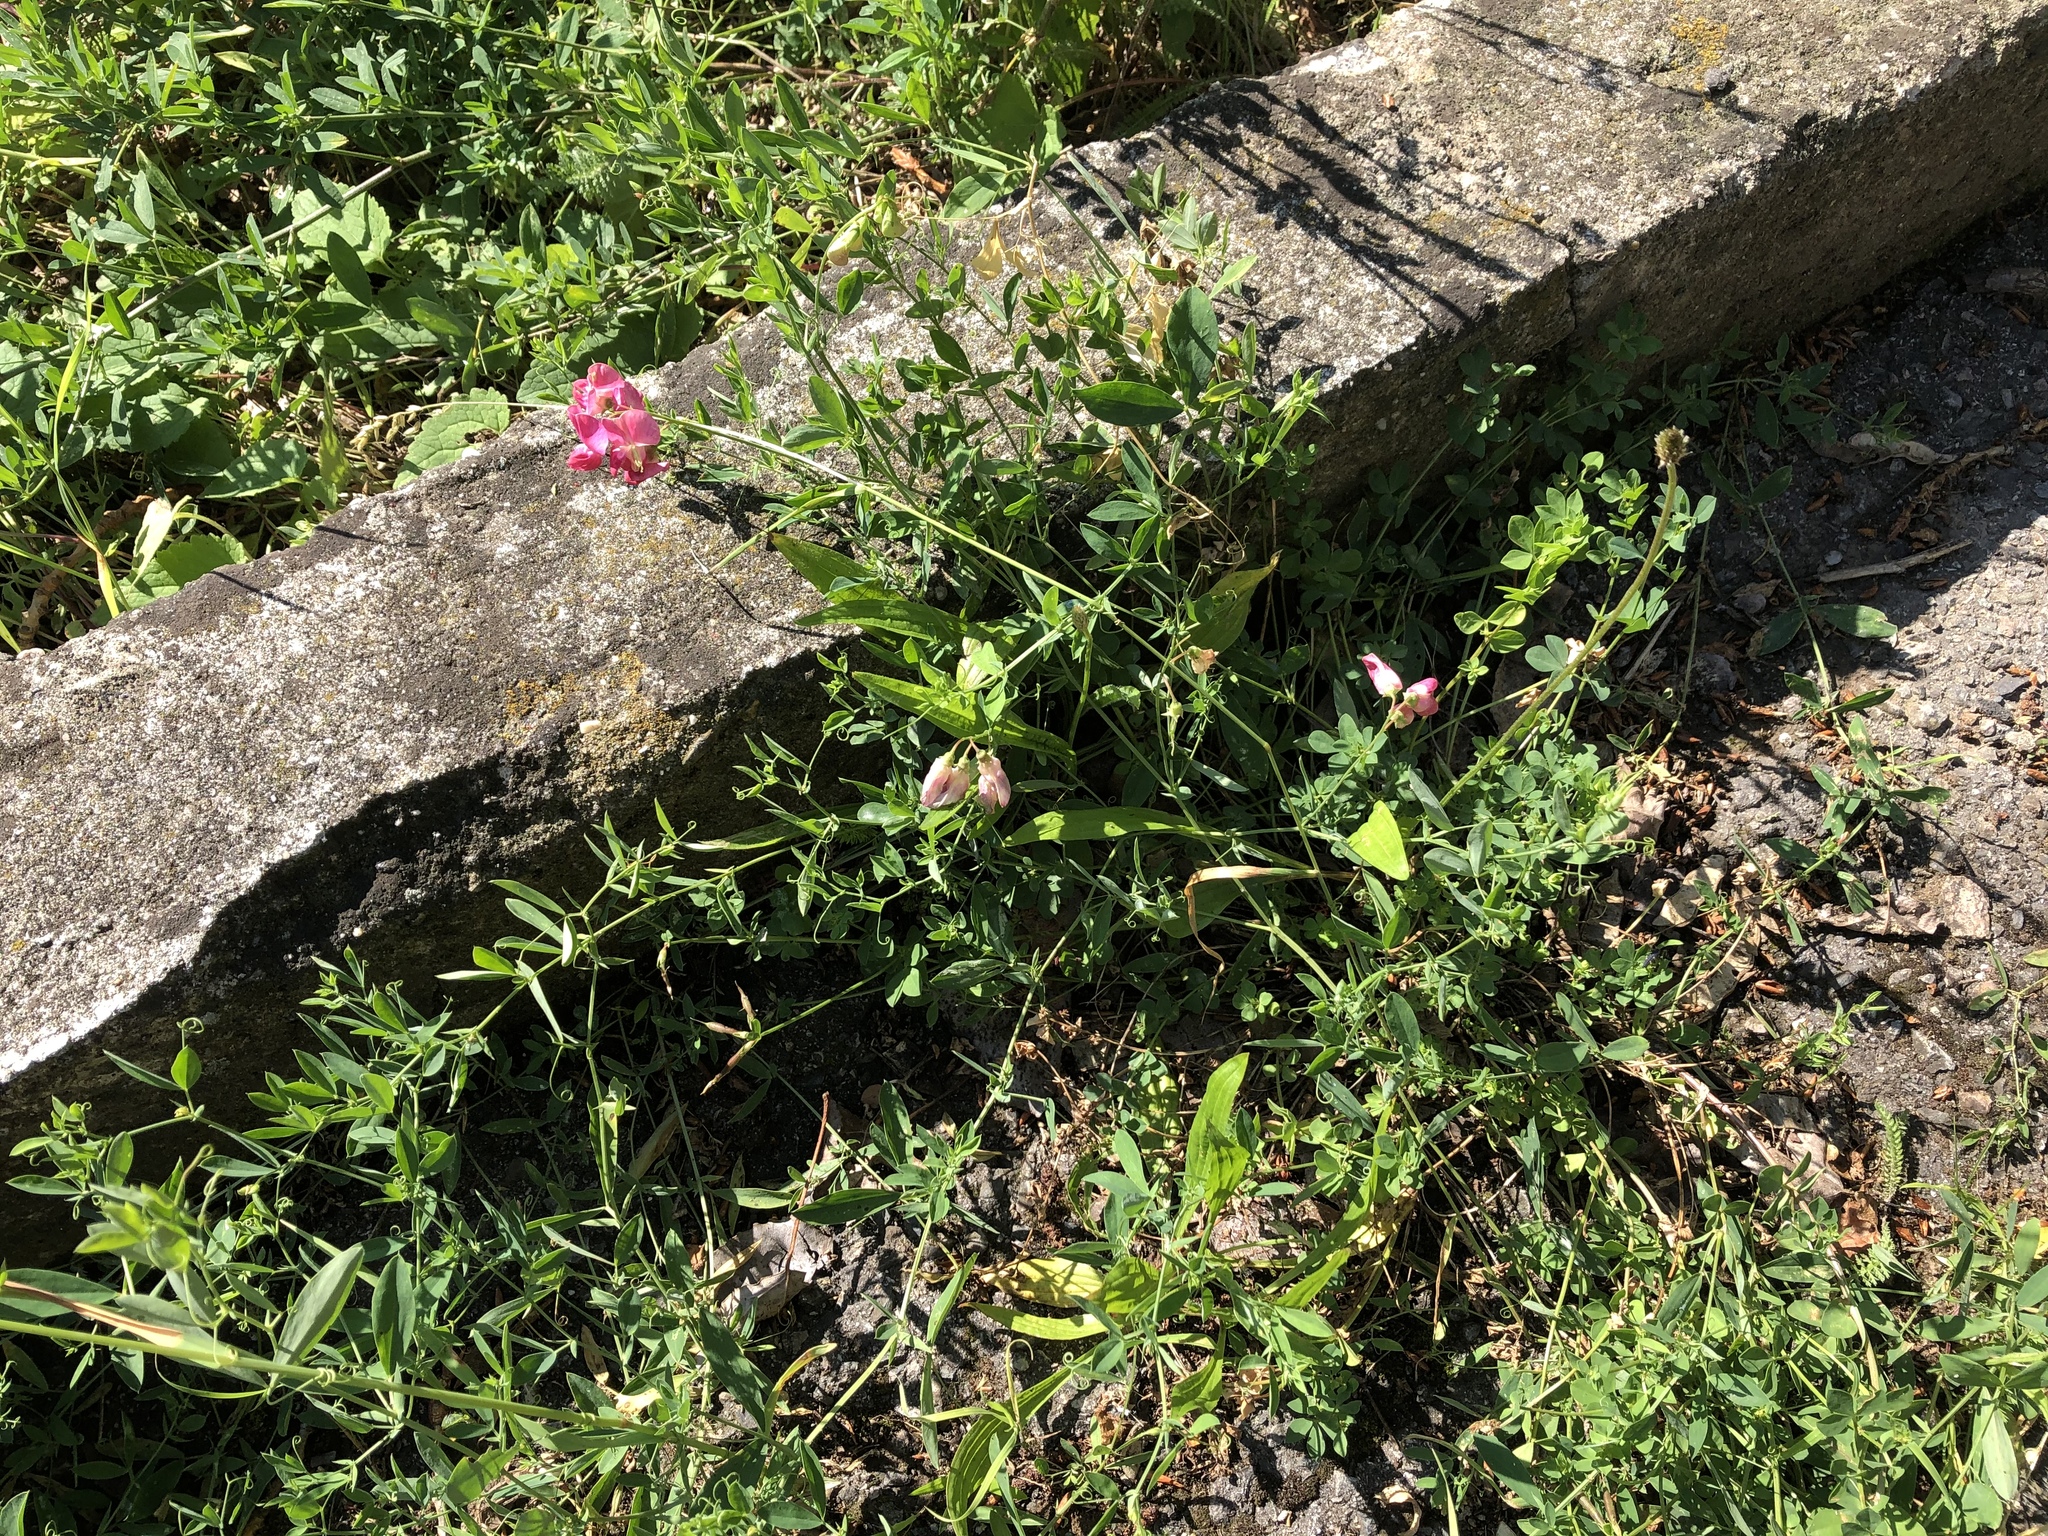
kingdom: Plantae
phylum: Tracheophyta
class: Magnoliopsida
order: Fabales
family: Fabaceae
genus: Lathyrus
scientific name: Lathyrus tuberosus
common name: Tuberous pea
